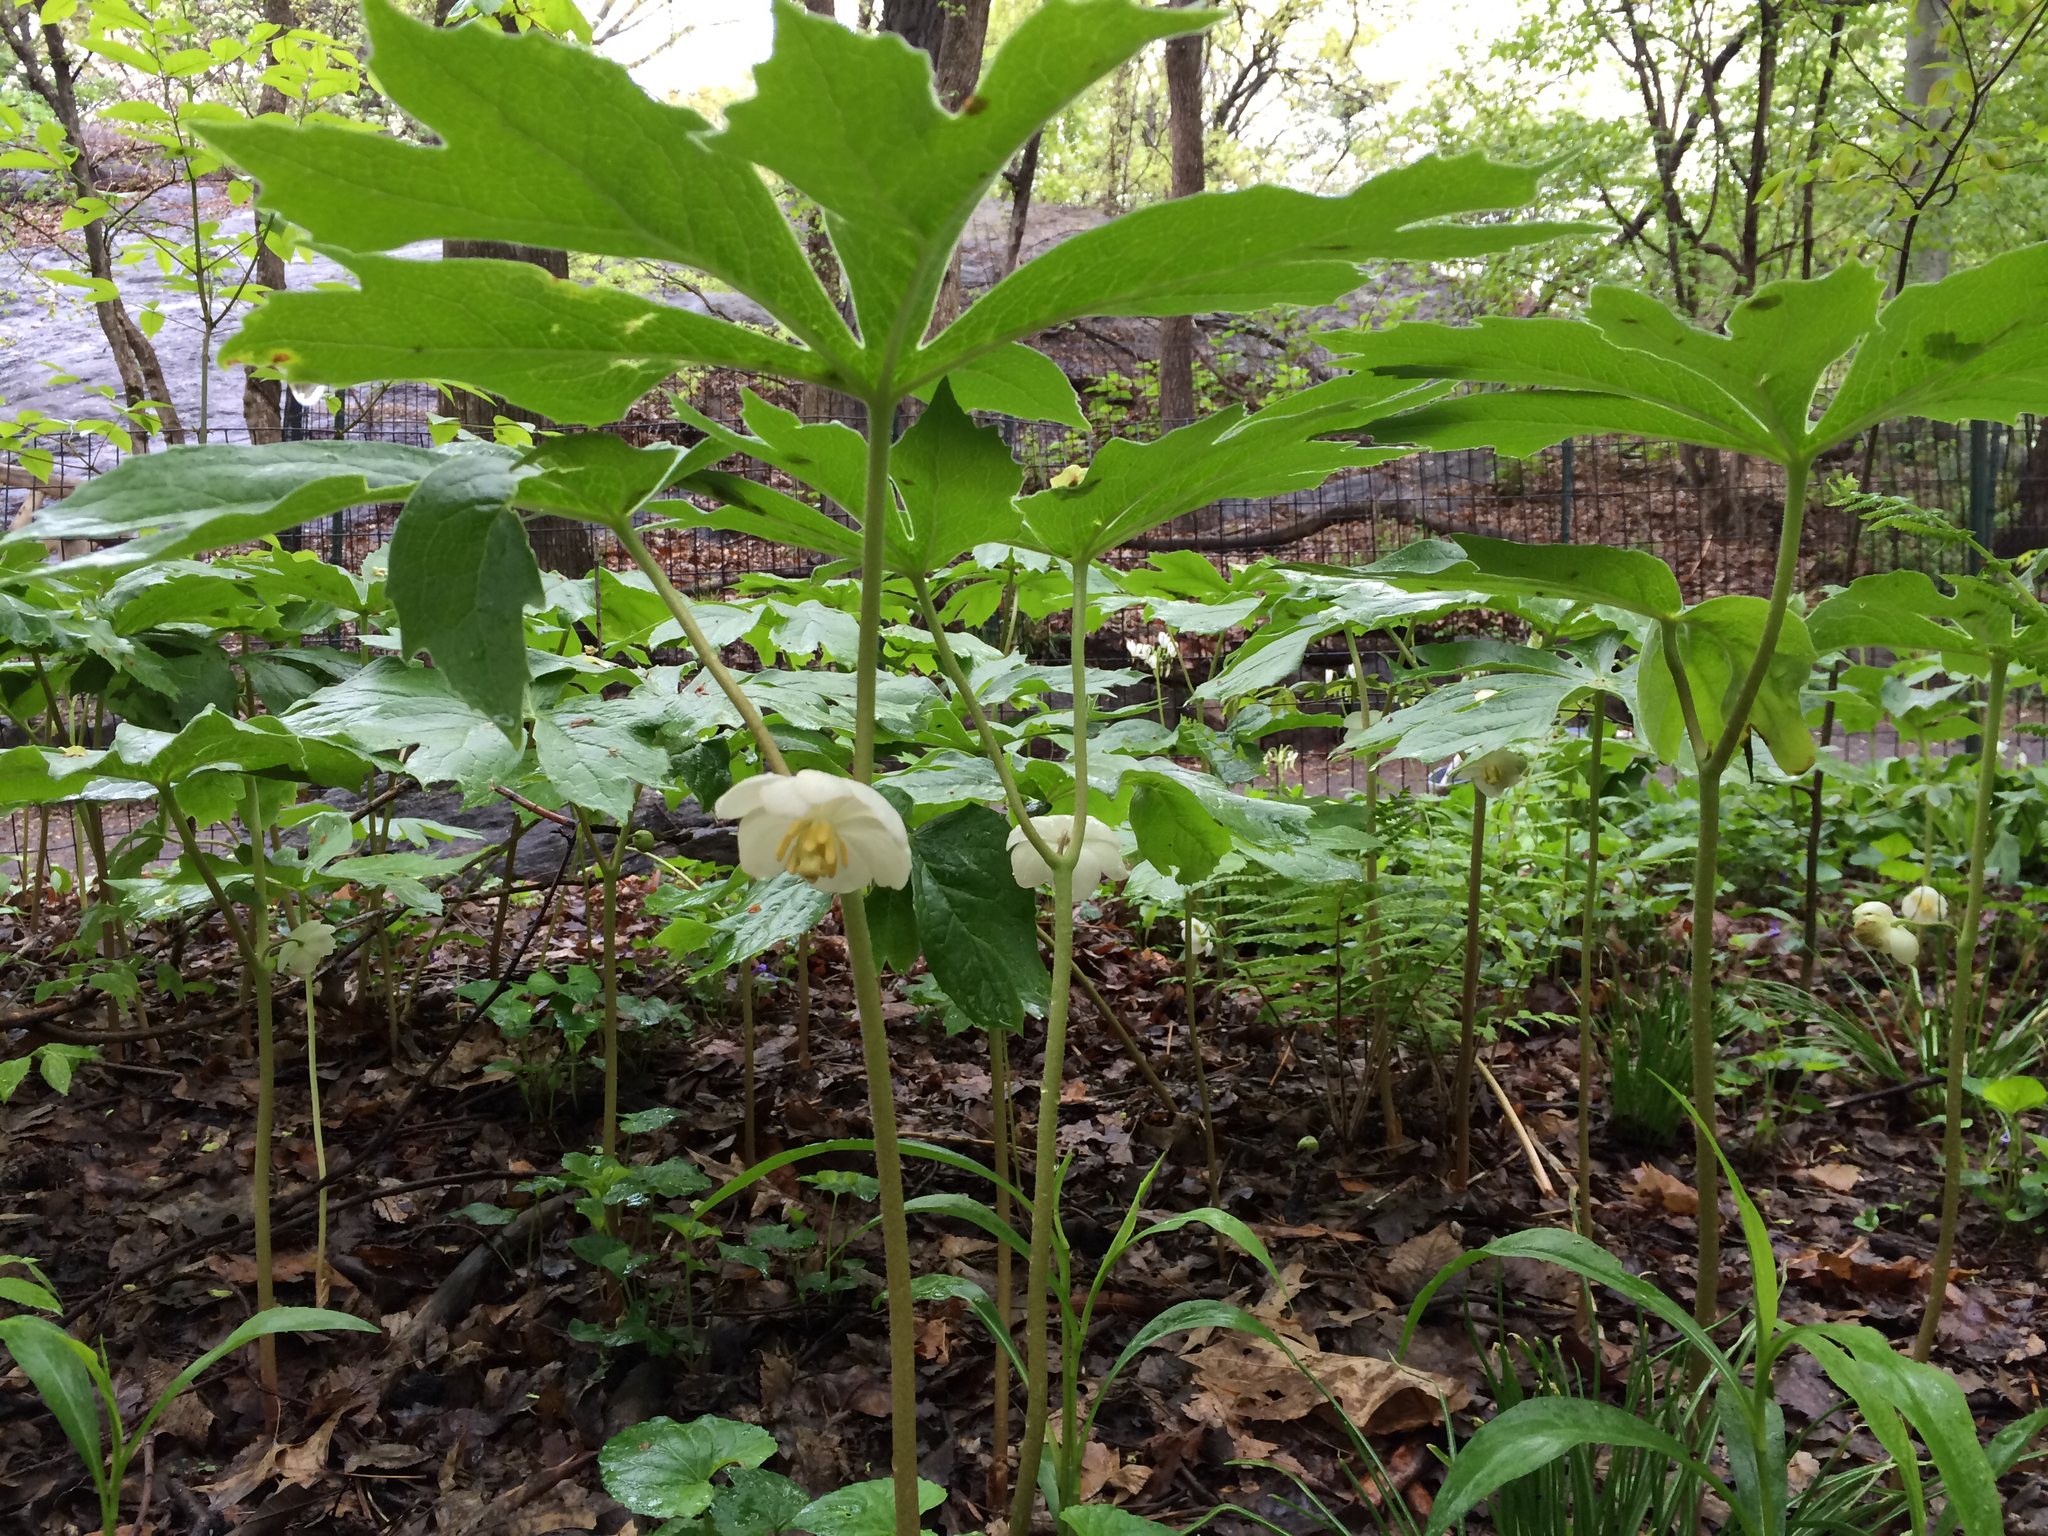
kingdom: Plantae
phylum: Tracheophyta
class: Magnoliopsida
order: Ranunculales
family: Berberidaceae
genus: Podophyllum
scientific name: Podophyllum peltatum
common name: Wild mandrake
